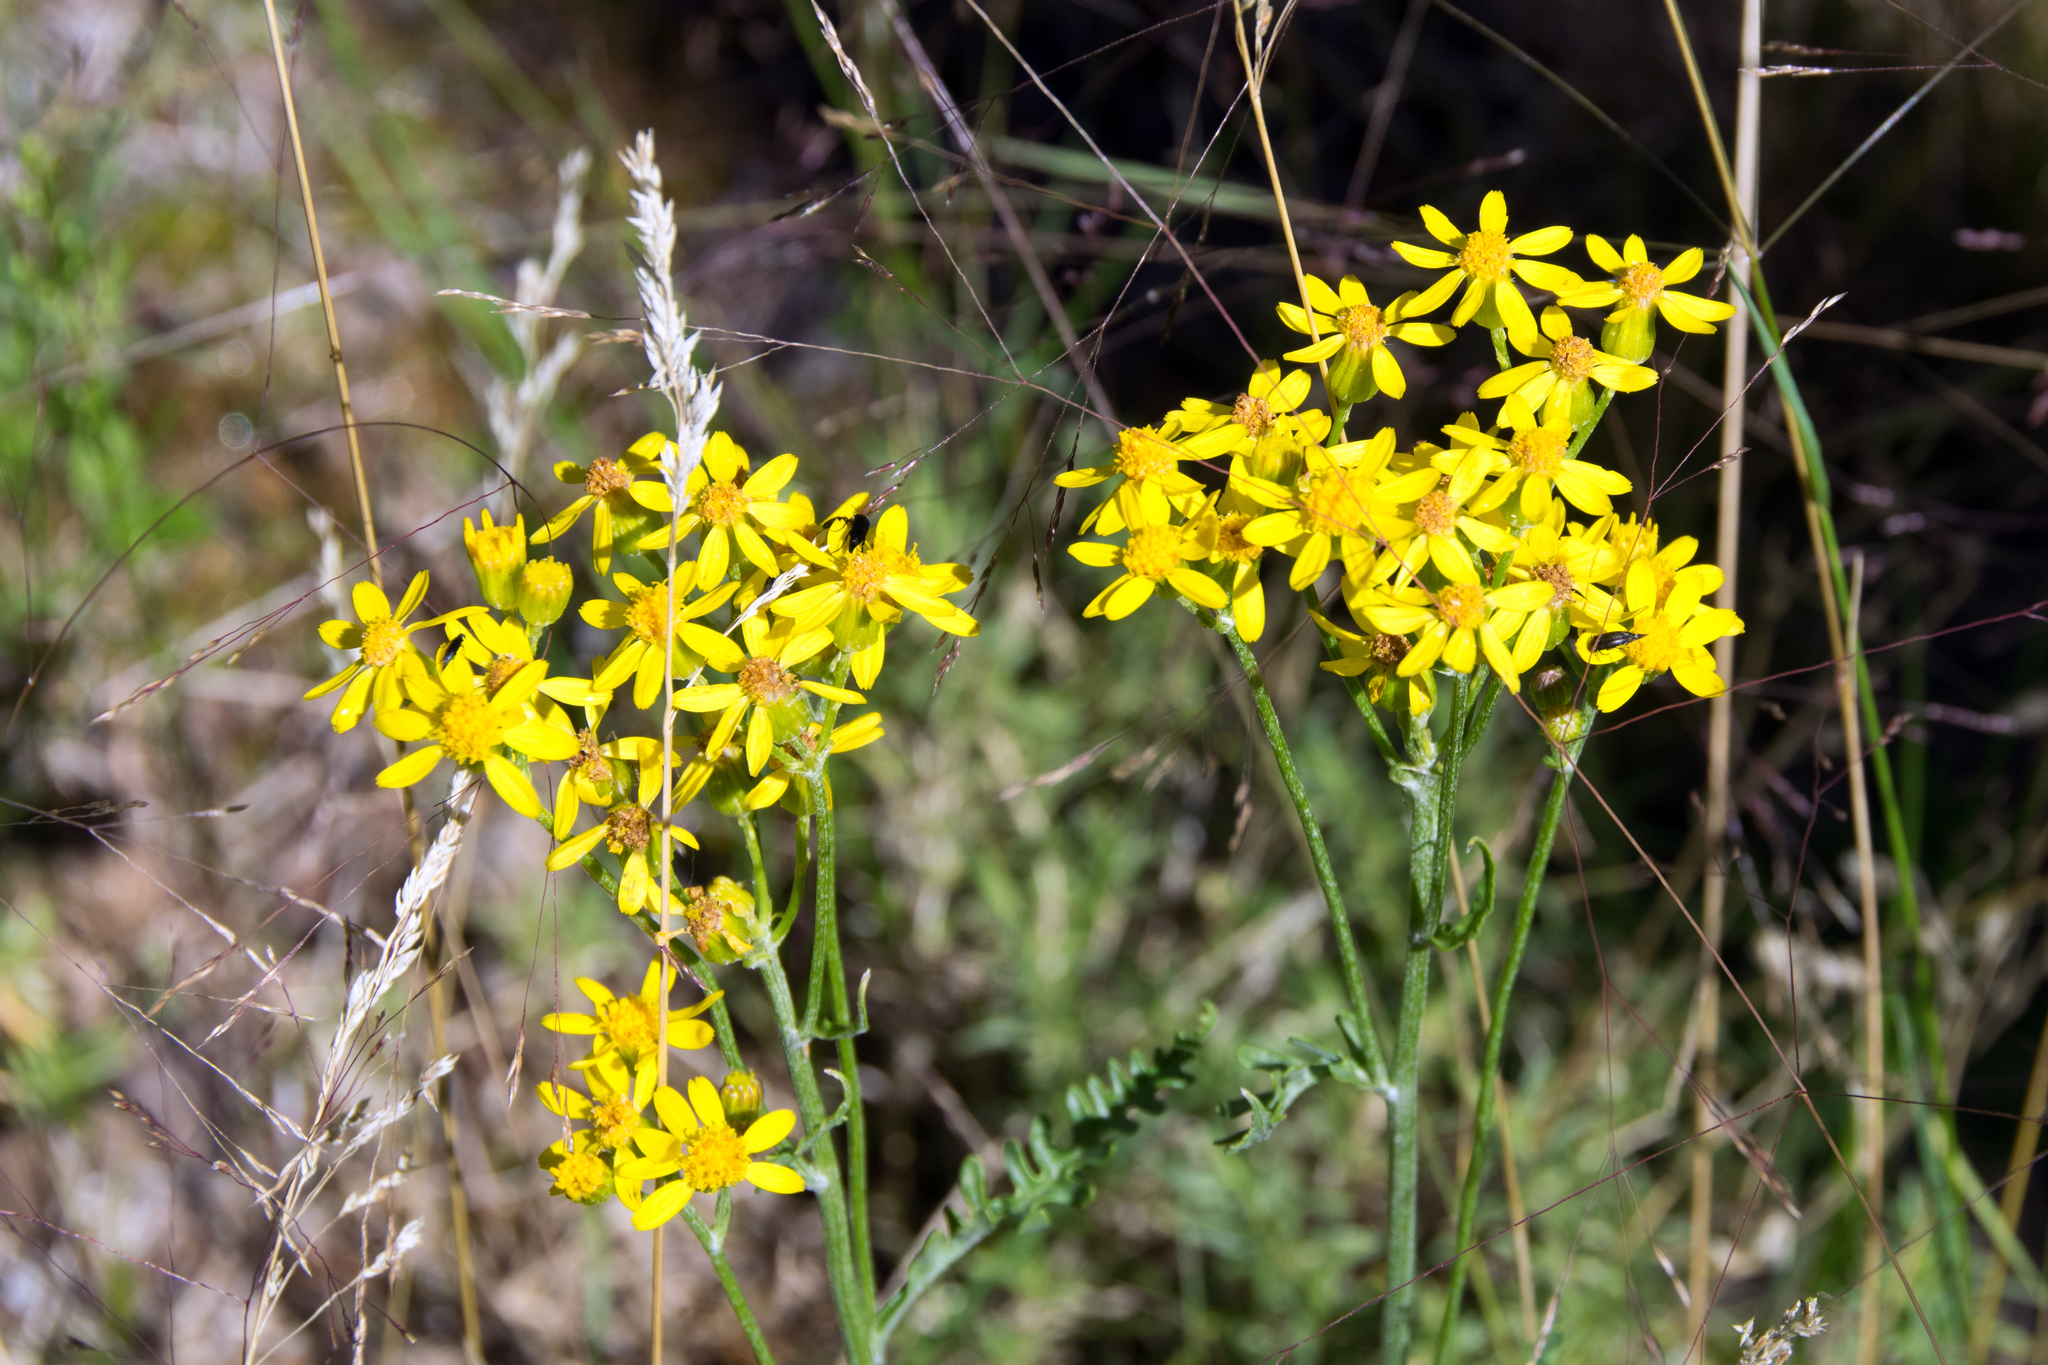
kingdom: Plantae
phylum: Tracheophyta
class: Magnoliopsida
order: Asterales
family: Asteraceae
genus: Packera
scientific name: Packera fendleri
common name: Notch-leaf butterweed
